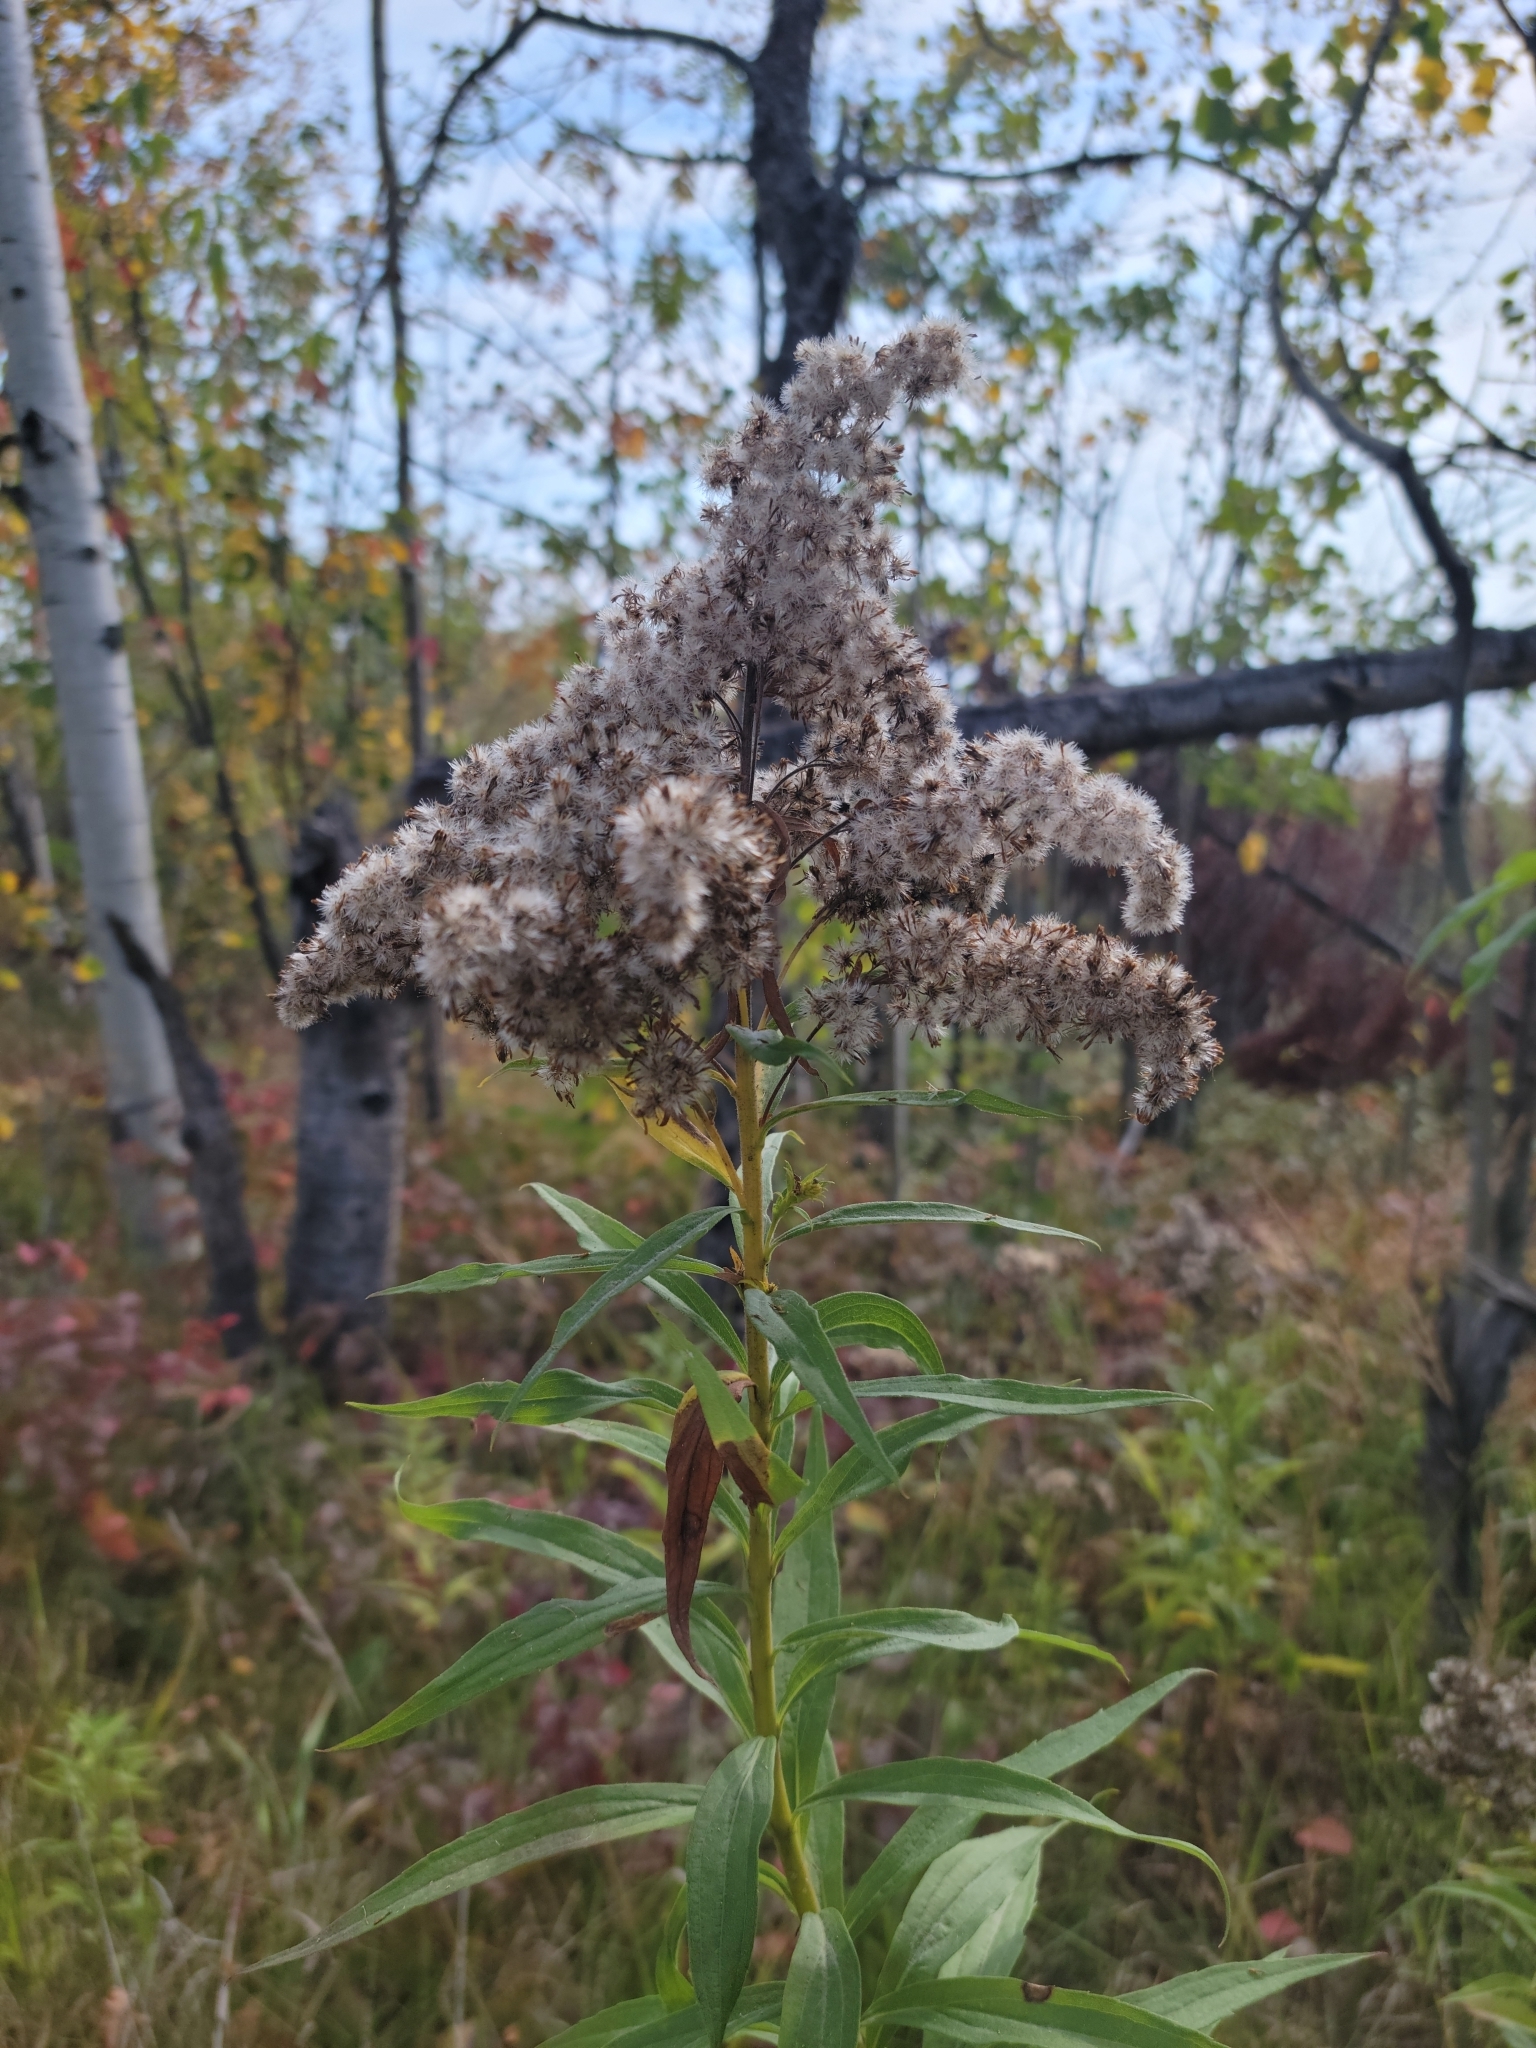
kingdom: Plantae
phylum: Tracheophyta
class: Magnoliopsida
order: Asterales
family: Asteraceae
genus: Solidago
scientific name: Solidago canadensis
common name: Canada goldenrod
